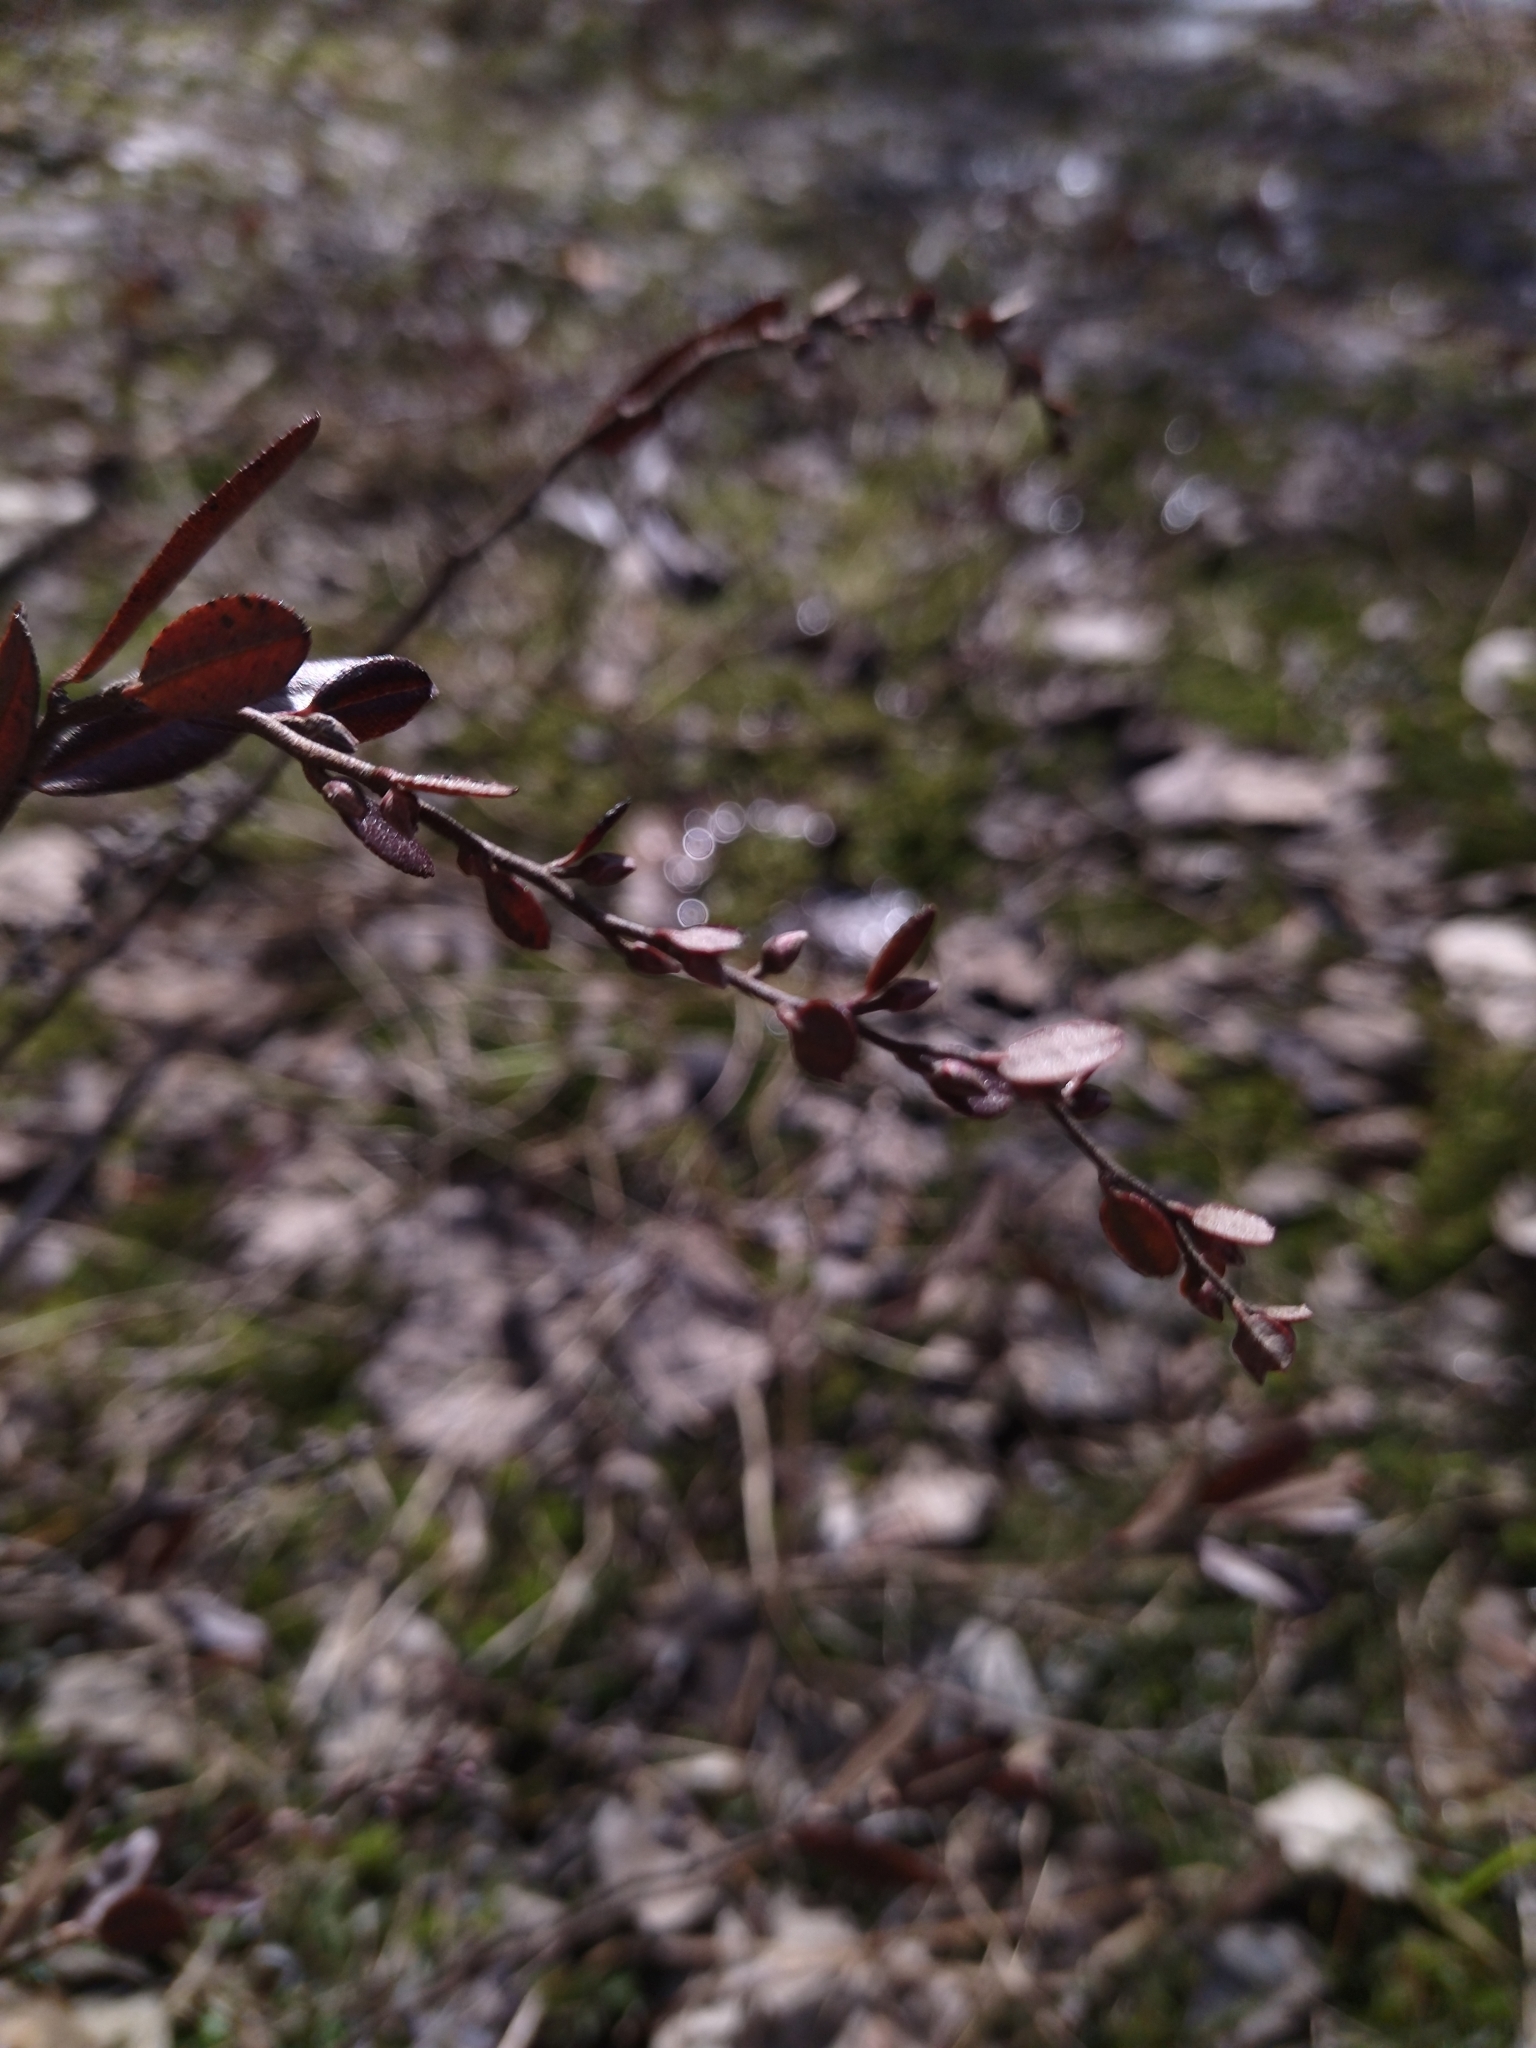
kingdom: Plantae
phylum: Tracheophyta
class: Magnoliopsida
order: Ericales
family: Ericaceae
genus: Chamaedaphne
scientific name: Chamaedaphne calyculata
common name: Leatherleaf
